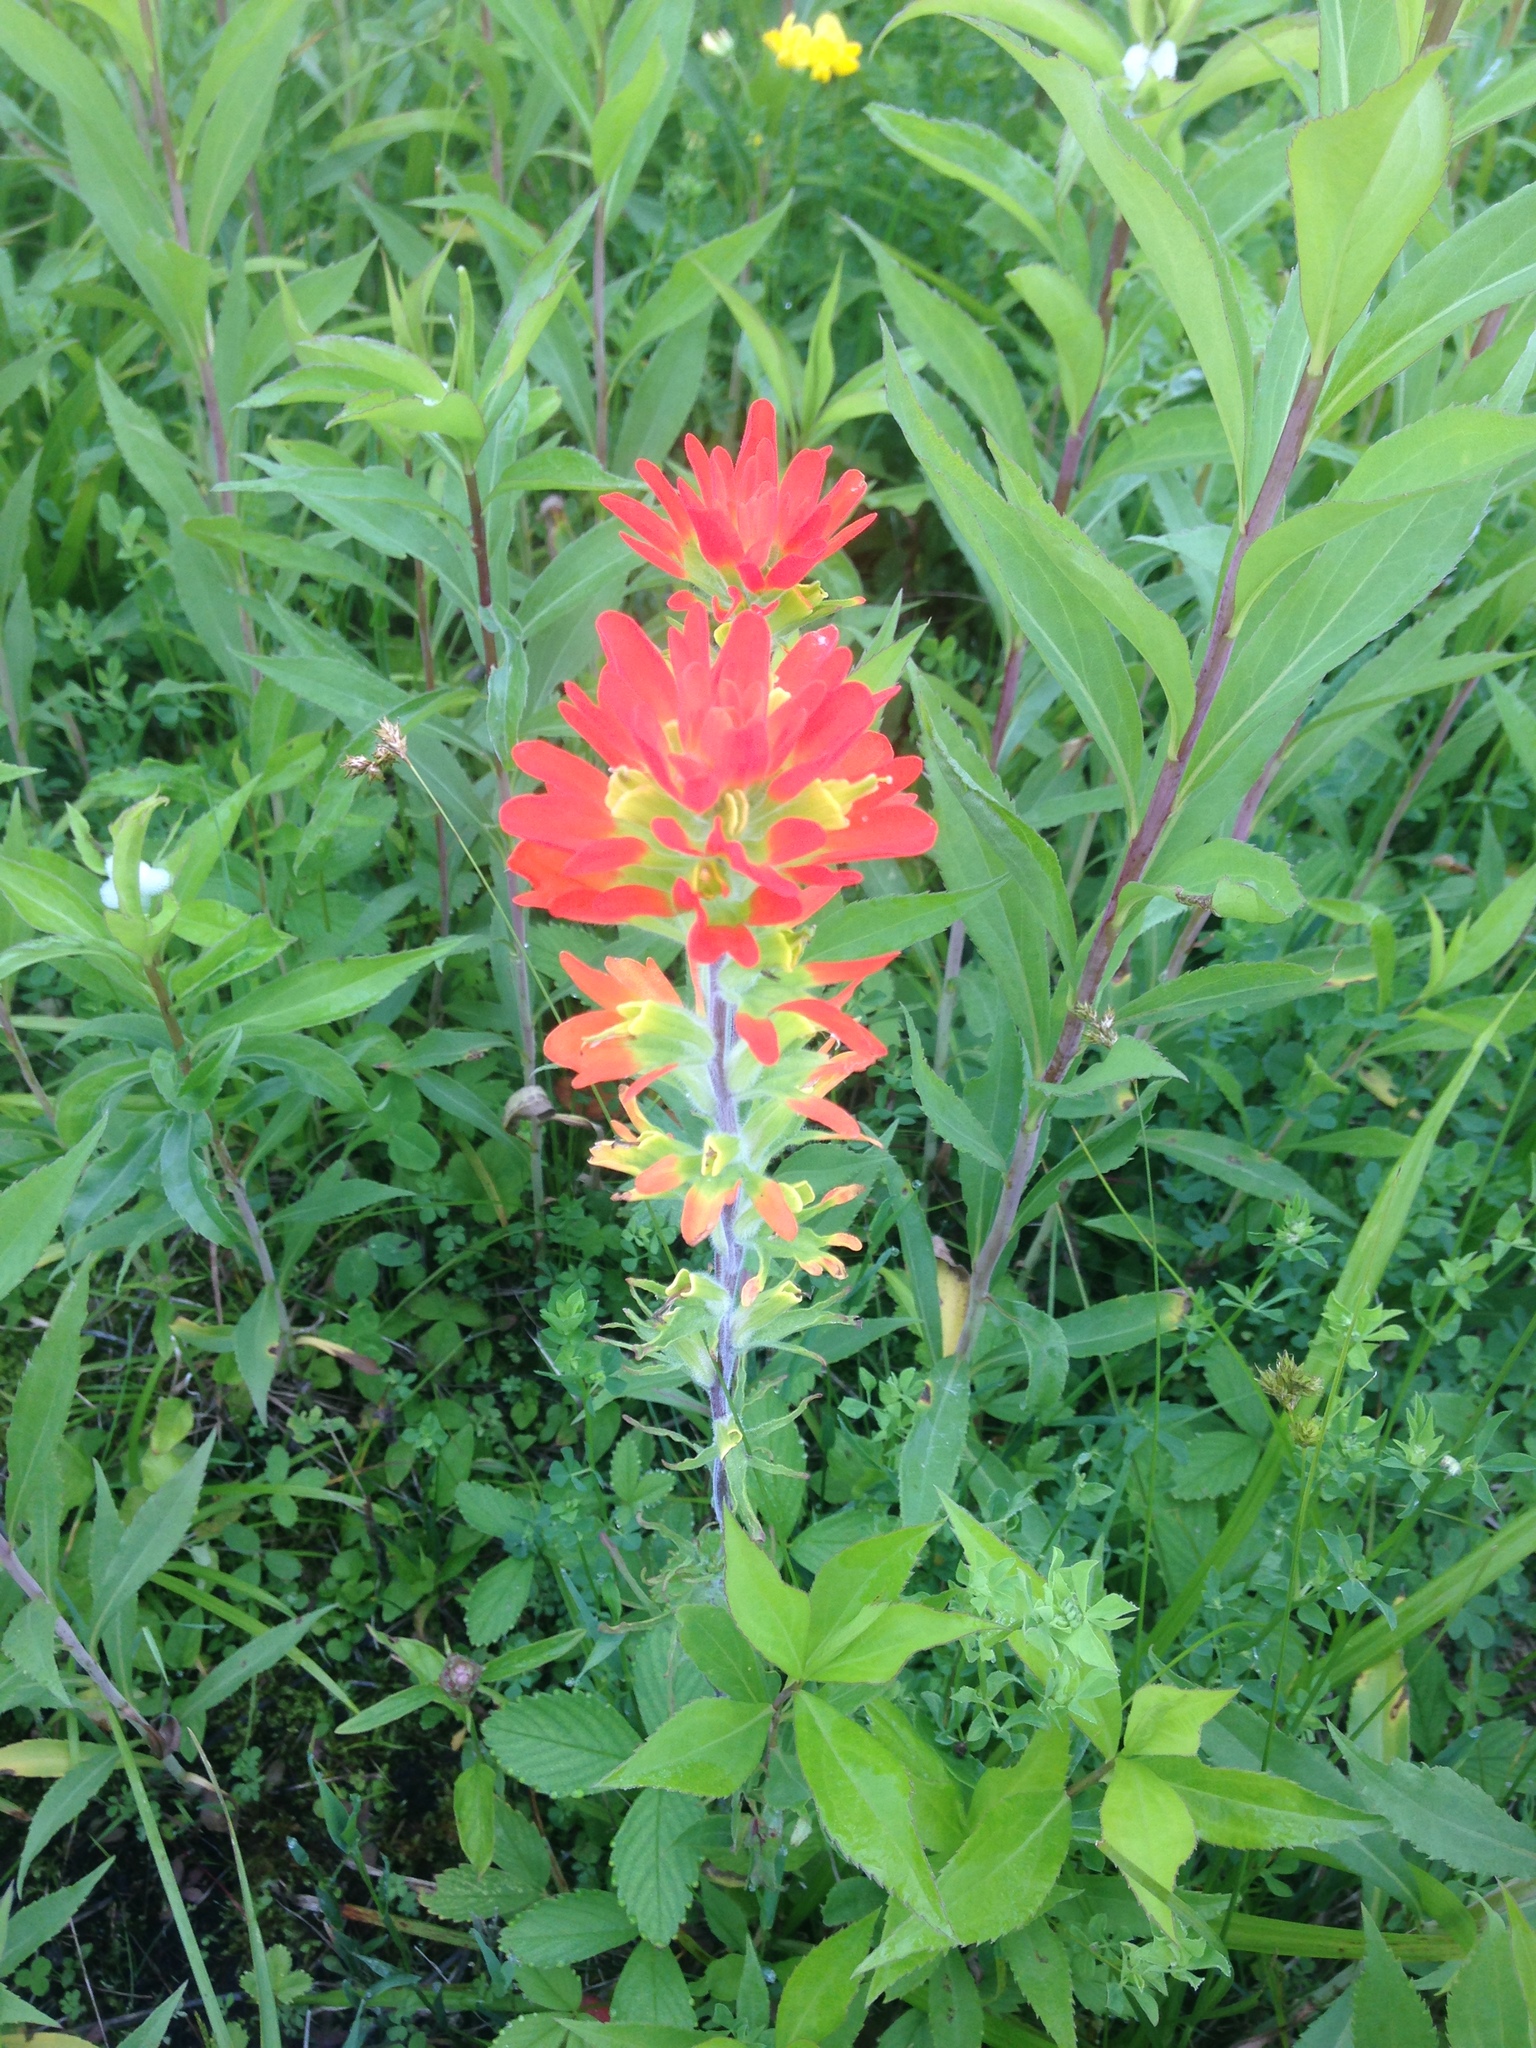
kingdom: Plantae
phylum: Tracheophyta
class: Magnoliopsida
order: Lamiales
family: Orobanchaceae
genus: Castilleja
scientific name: Castilleja coccinea
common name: Scarlet paintbrush
